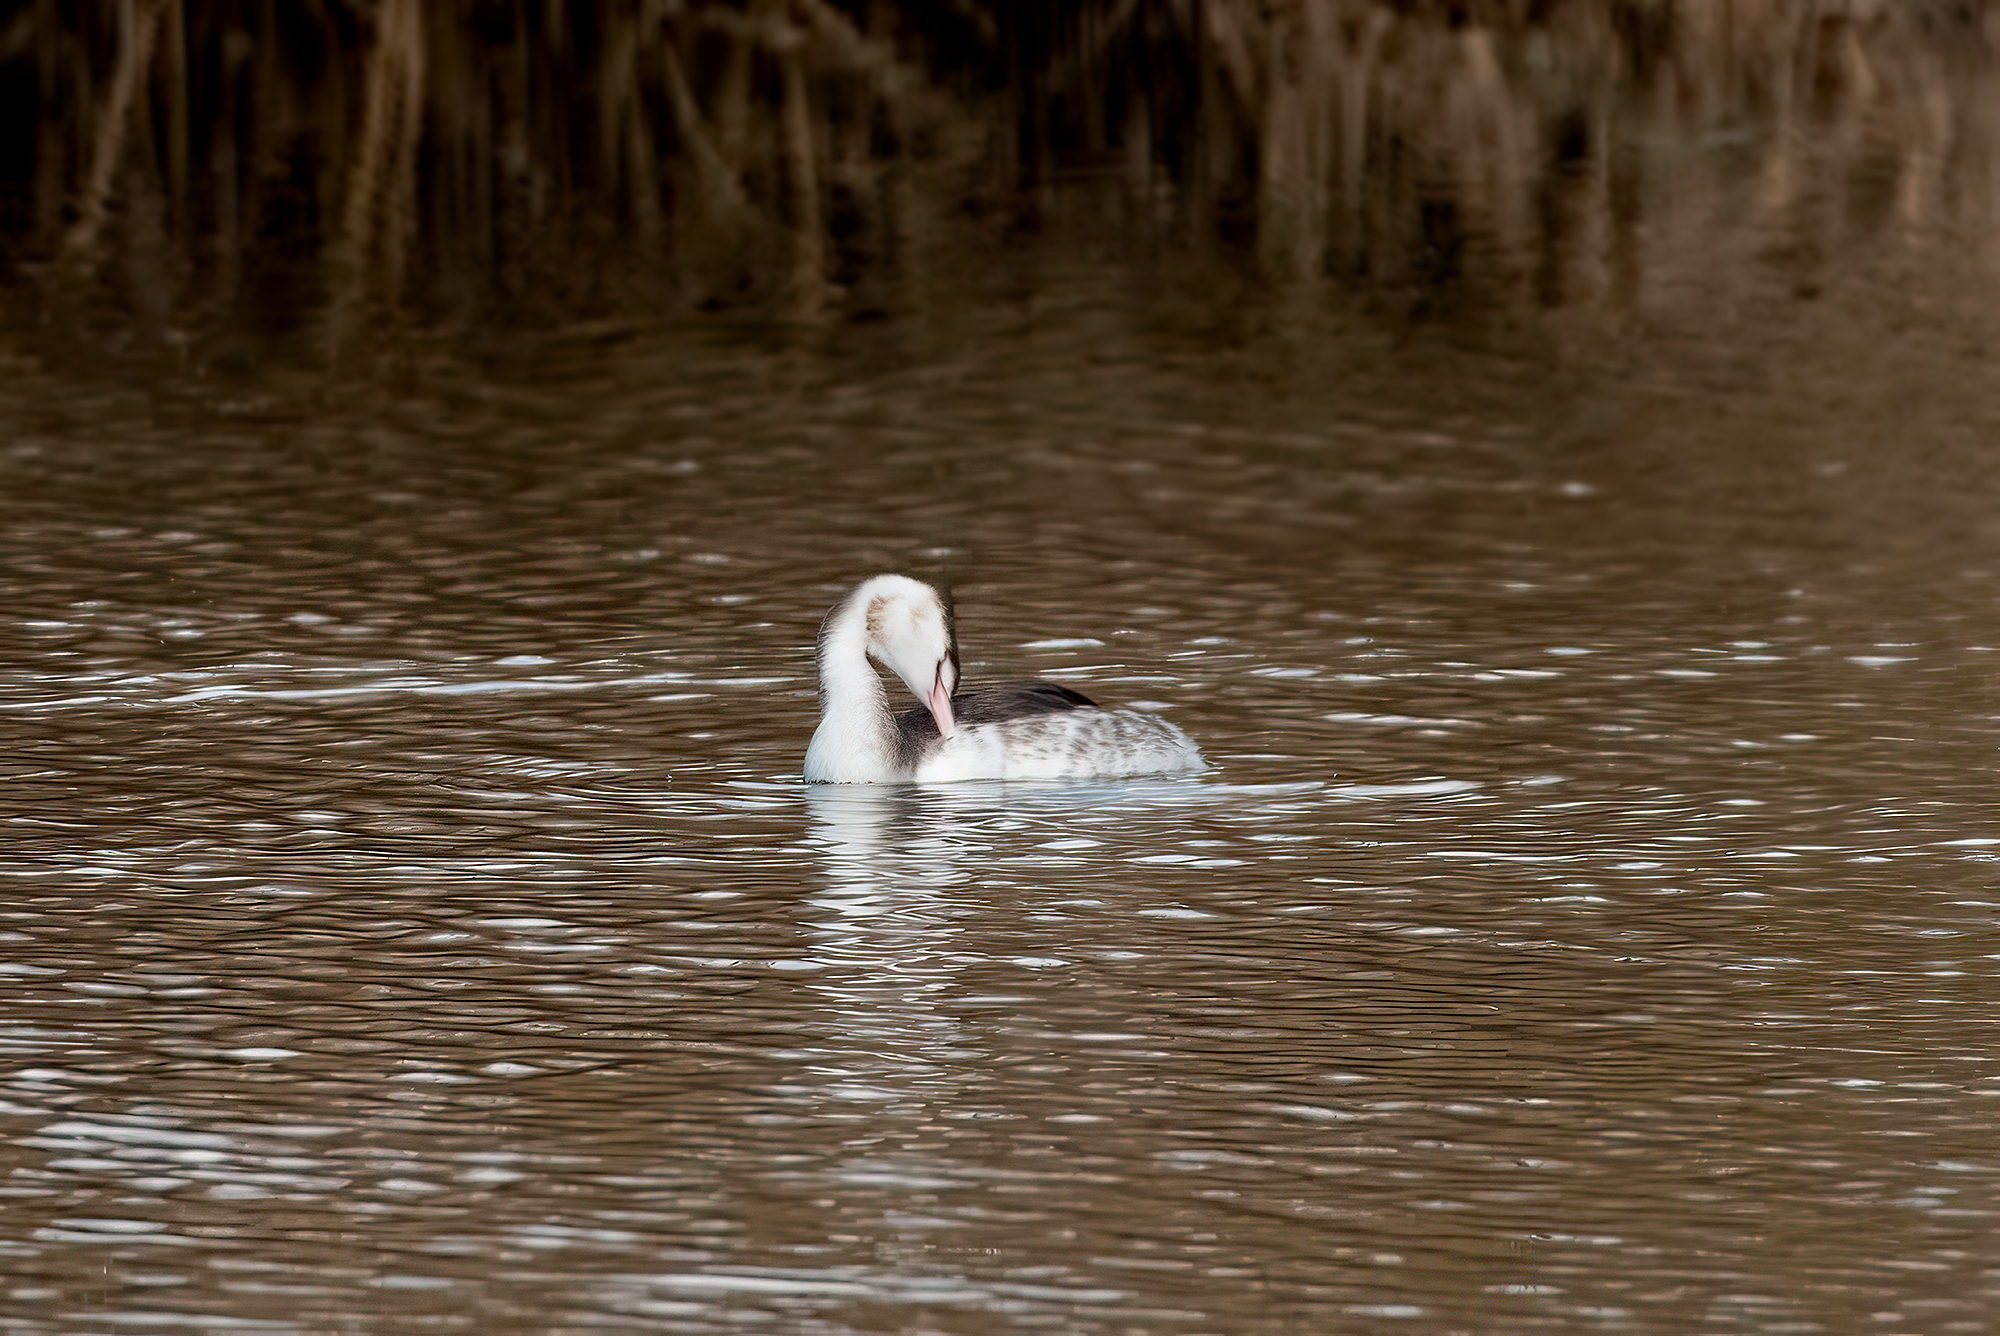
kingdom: Animalia
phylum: Chordata
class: Aves
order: Podicipediformes
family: Podicipedidae
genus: Podiceps
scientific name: Podiceps cristatus
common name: Great crested grebe
